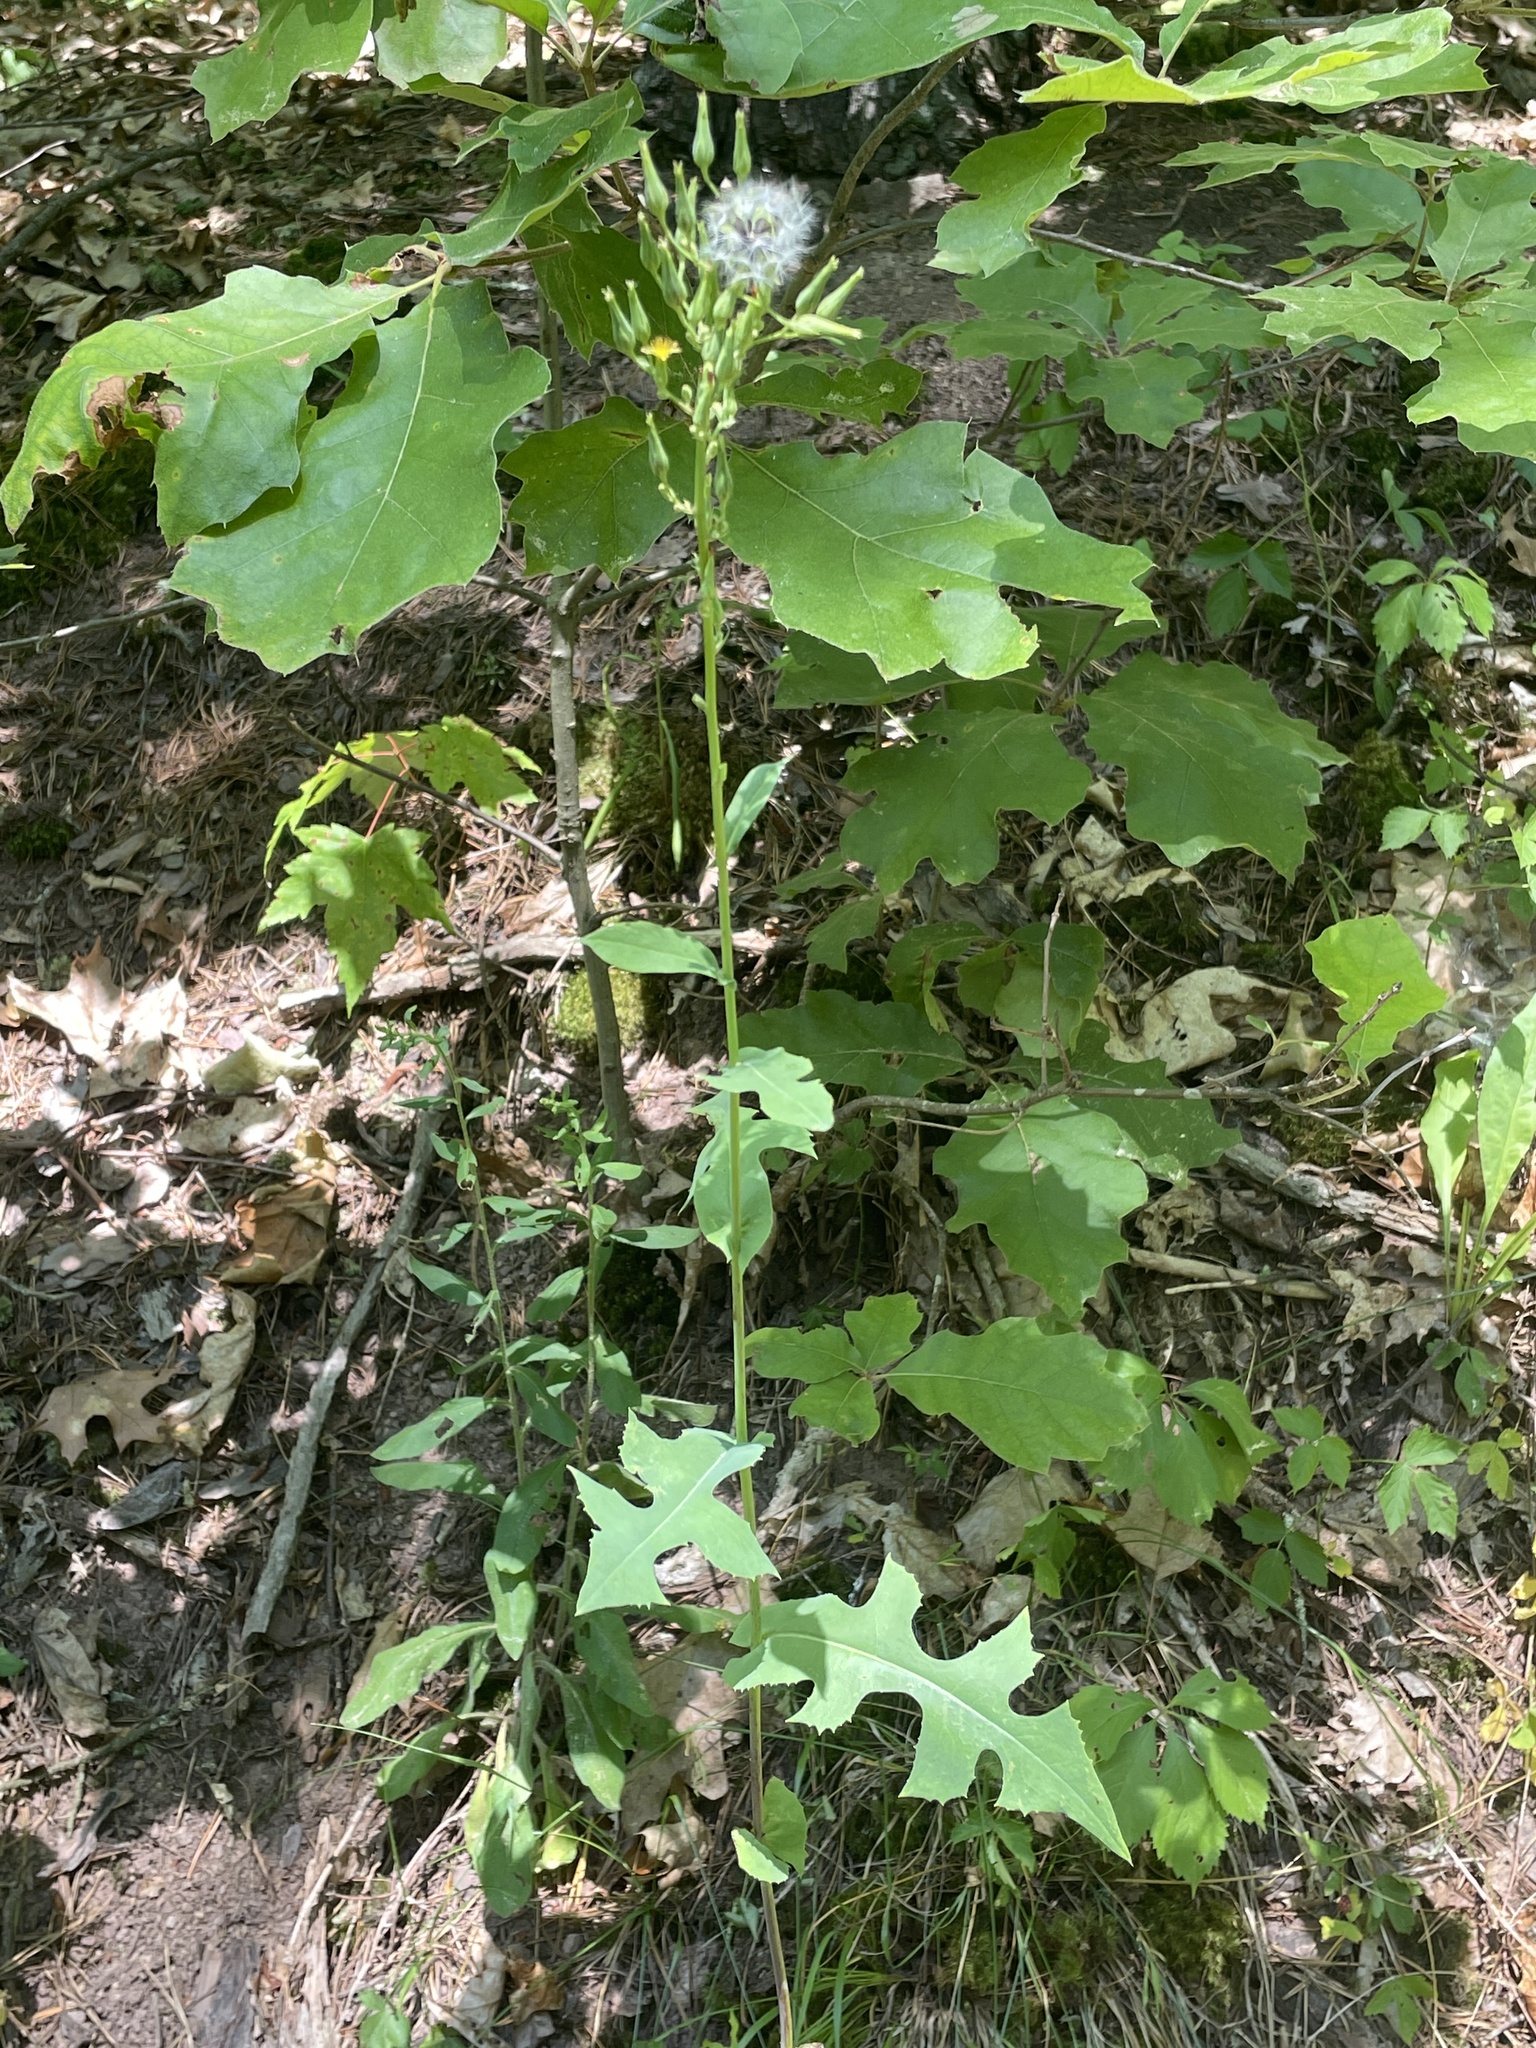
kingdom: Plantae
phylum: Tracheophyta
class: Magnoliopsida
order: Asterales
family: Asteraceae
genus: Lactuca
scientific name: Lactuca canadensis
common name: Canada lettuce
